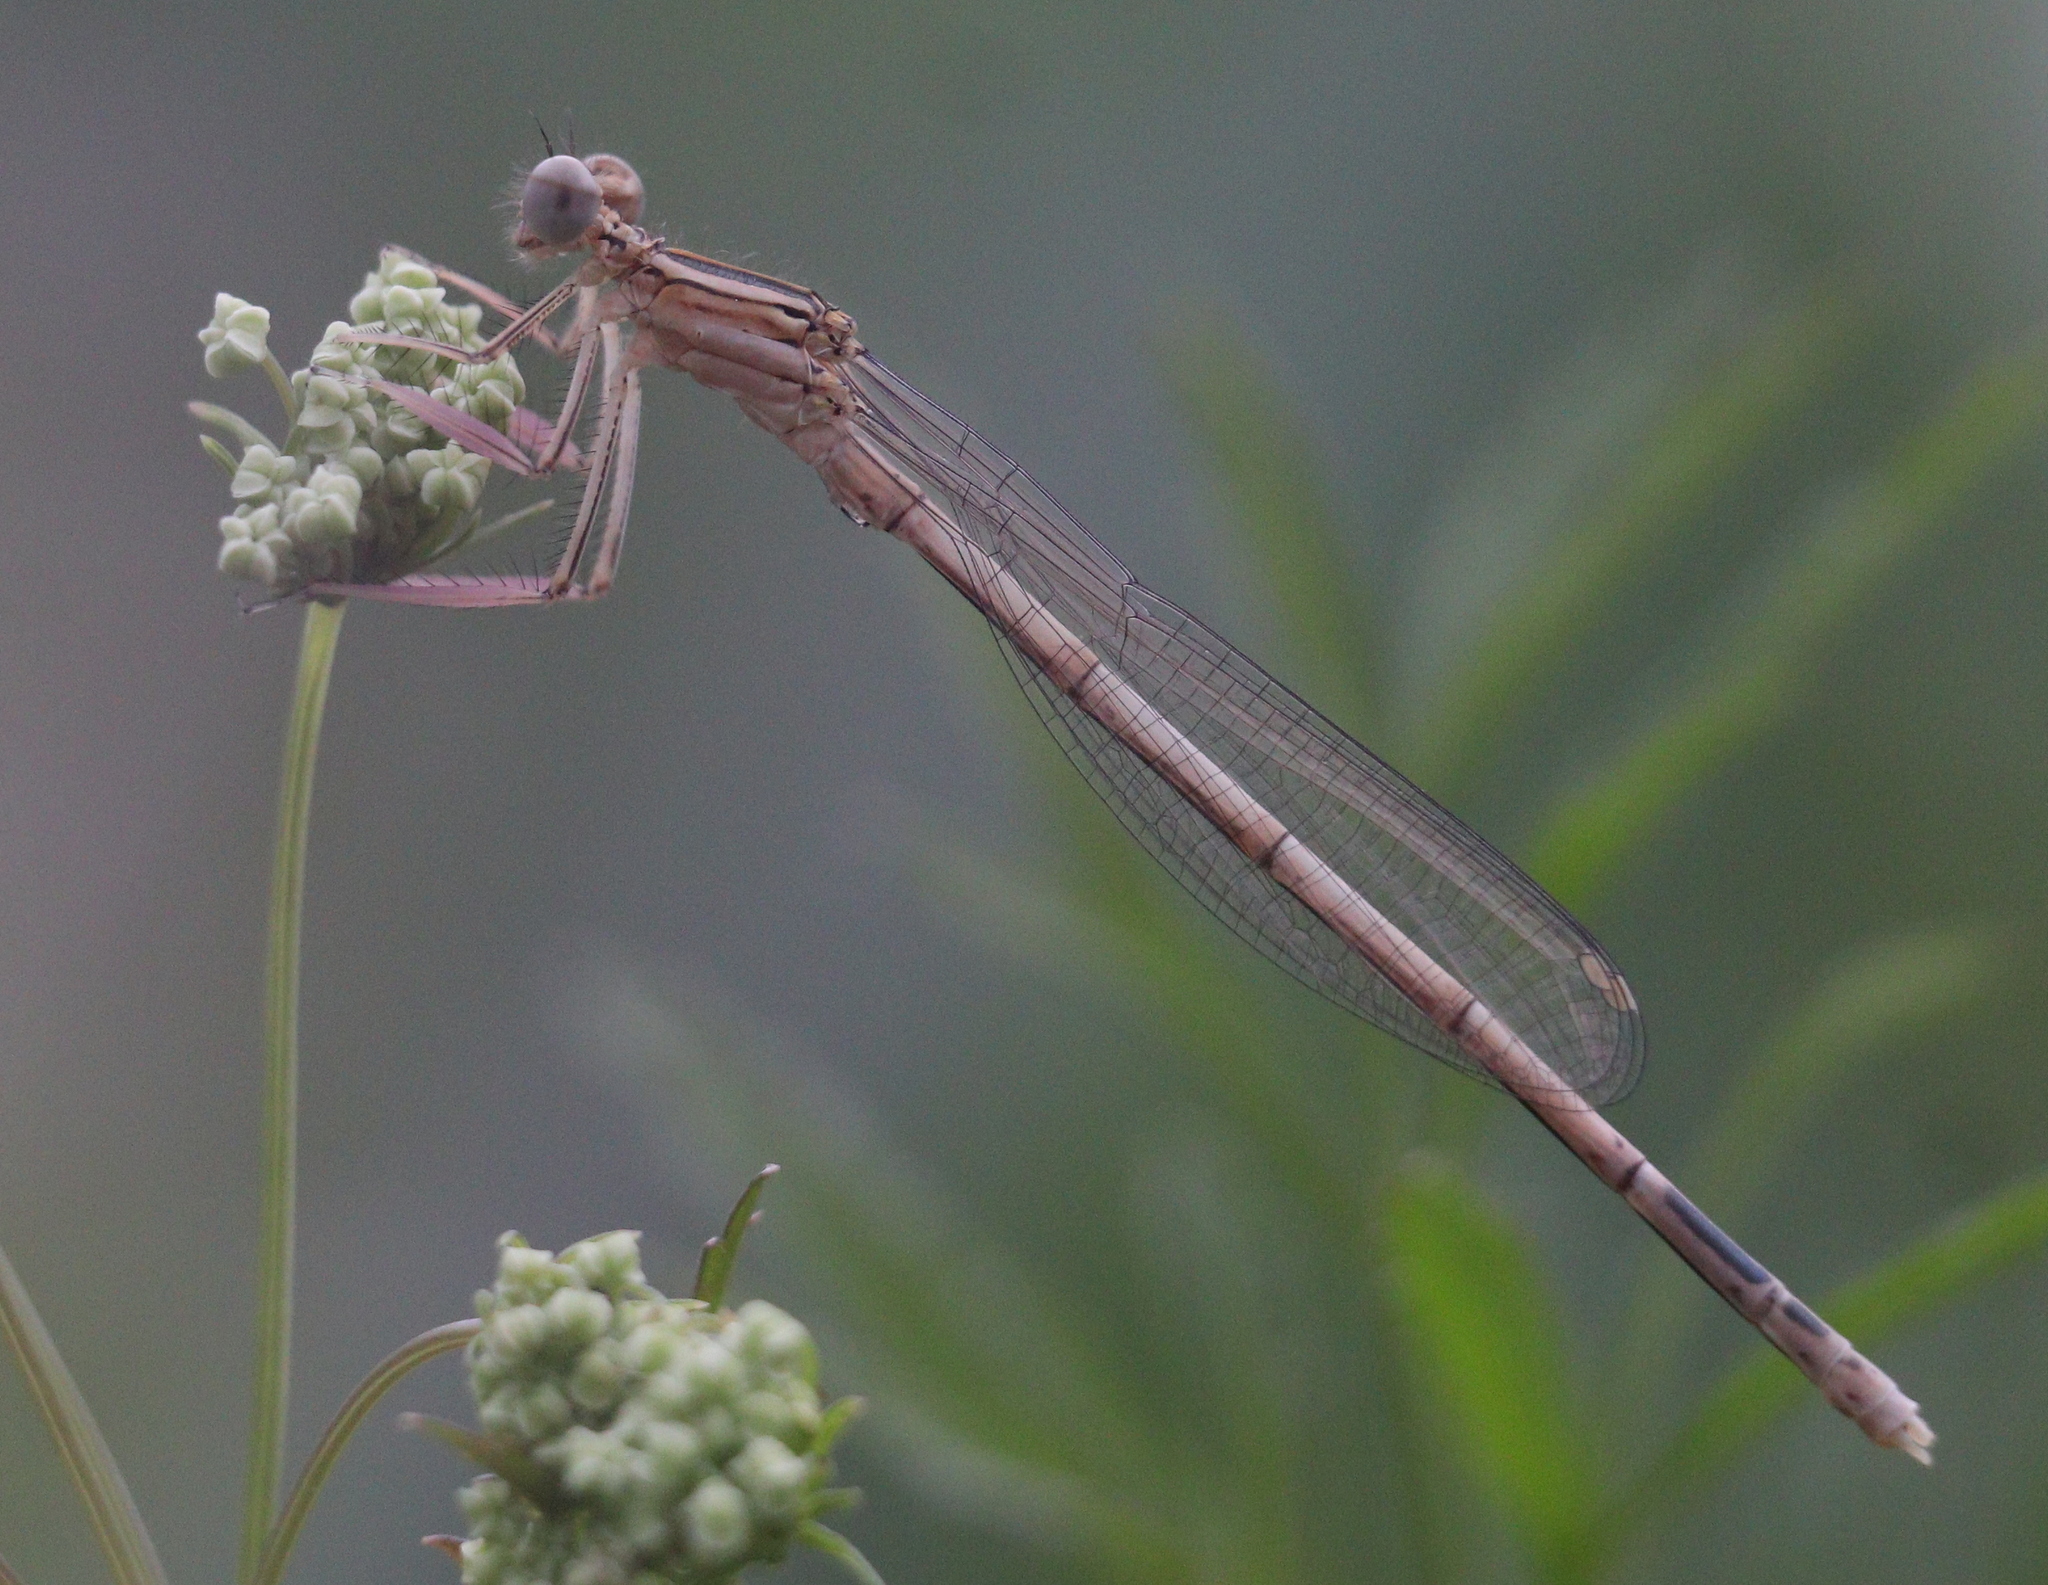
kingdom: Animalia
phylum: Arthropoda
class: Insecta
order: Odonata
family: Platycnemididae
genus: Platycnemis
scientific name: Platycnemis pennipes
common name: White-legged damselfly
